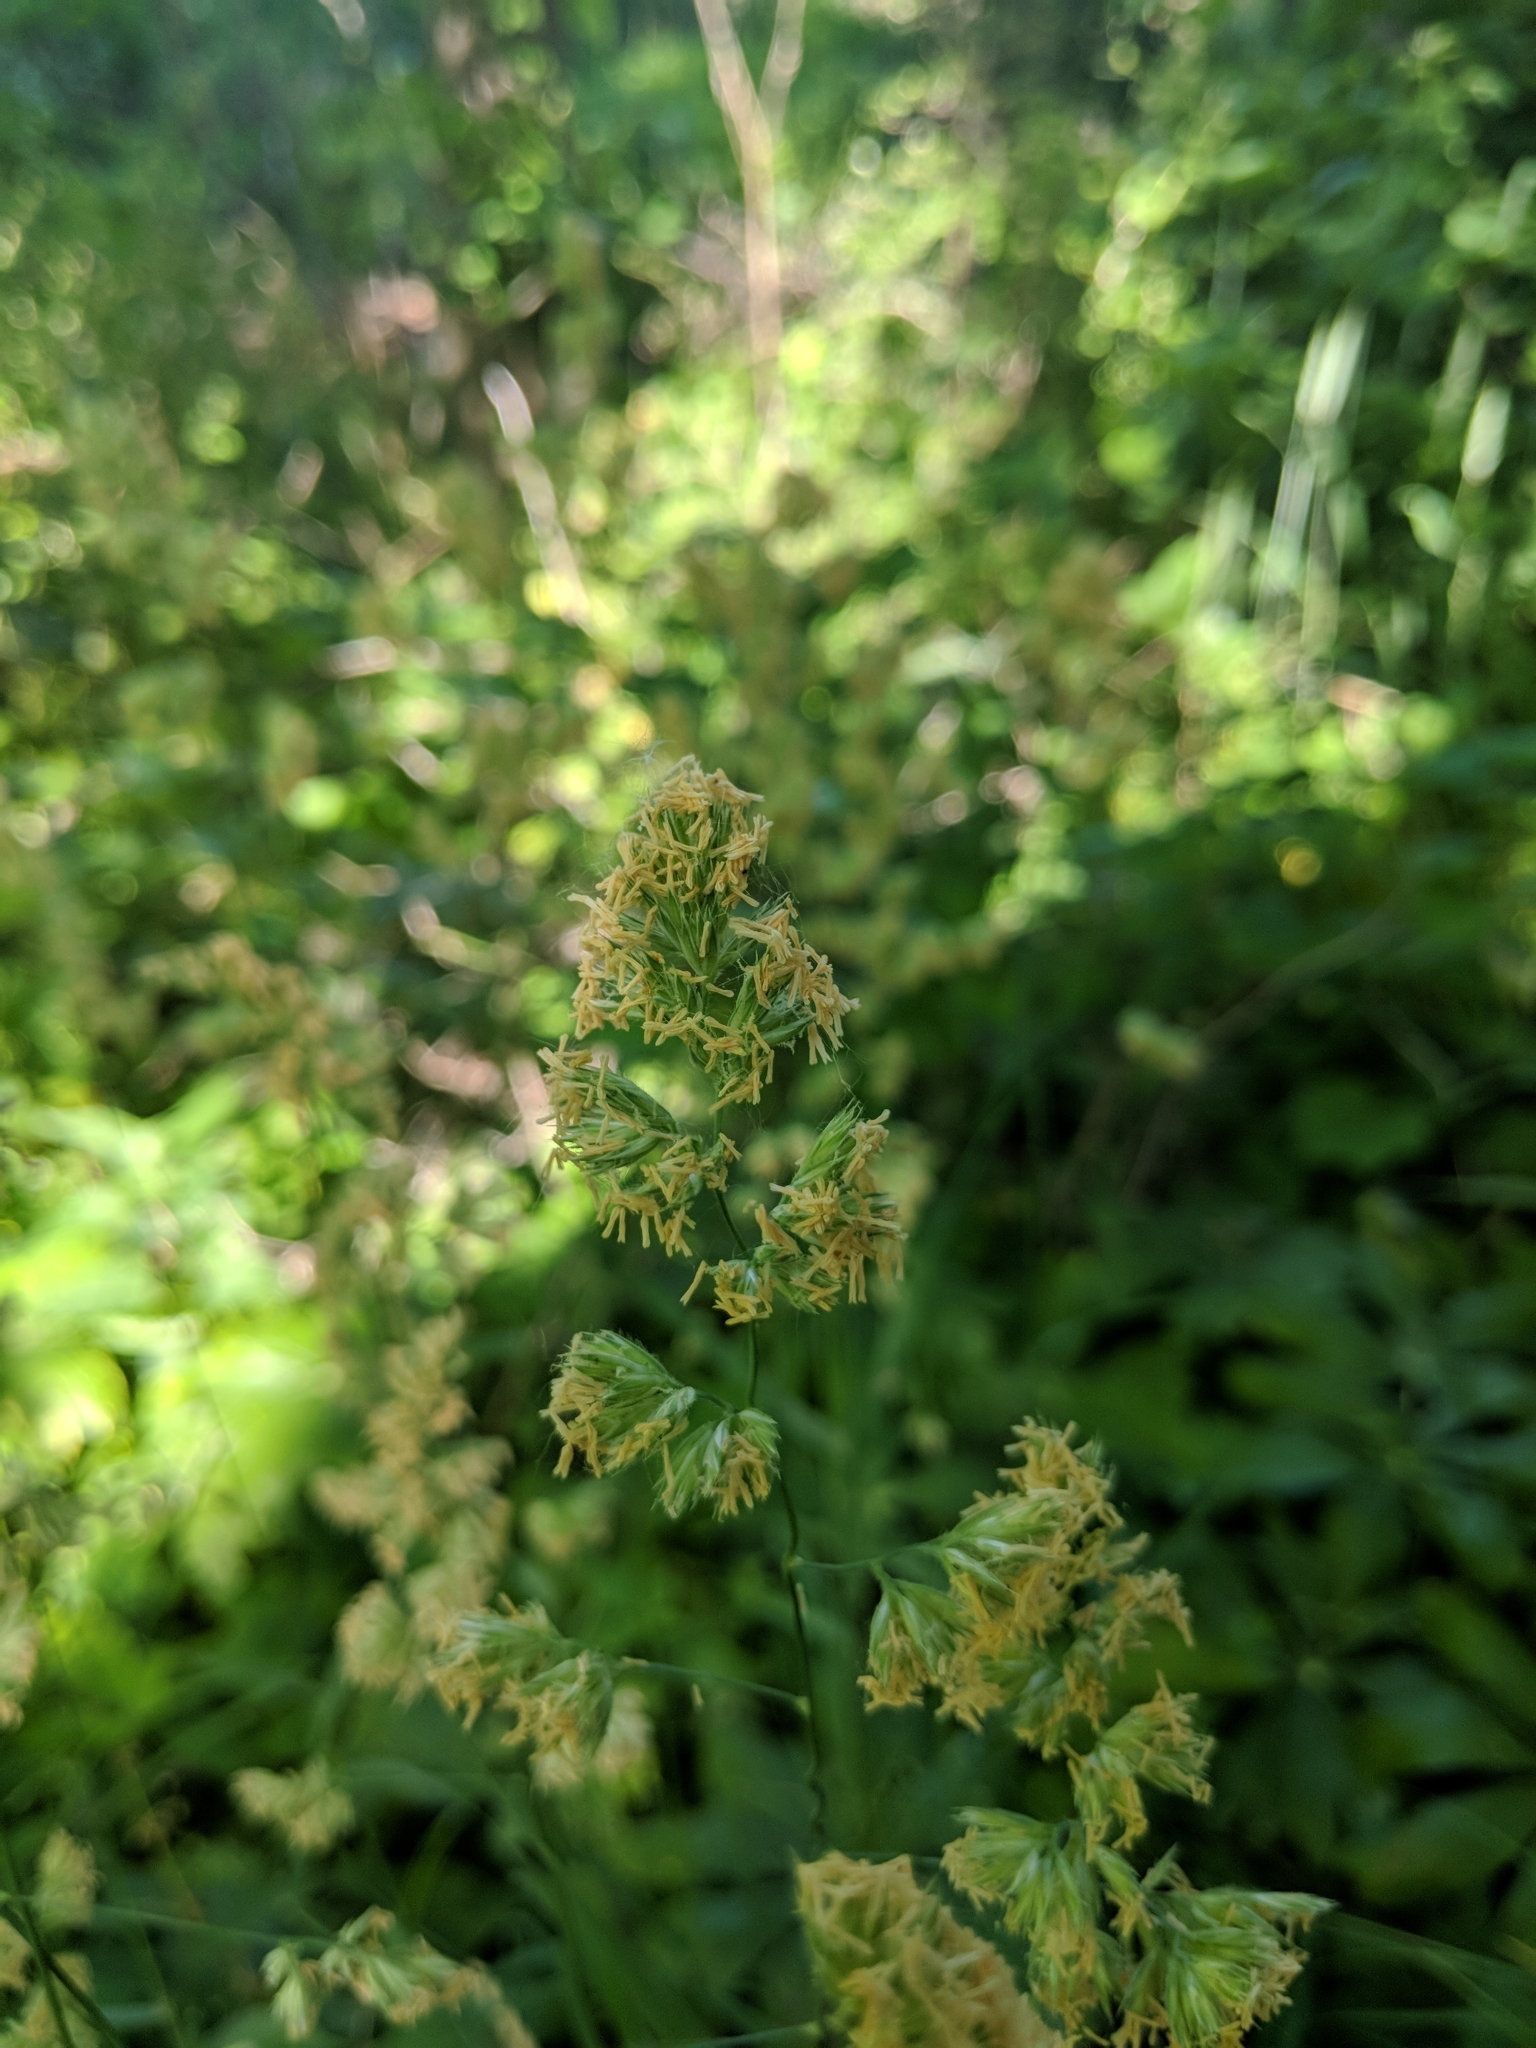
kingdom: Plantae
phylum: Tracheophyta
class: Liliopsida
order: Poales
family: Poaceae
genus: Dactylis
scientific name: Dactylis glomerata
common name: Orchardgrass
